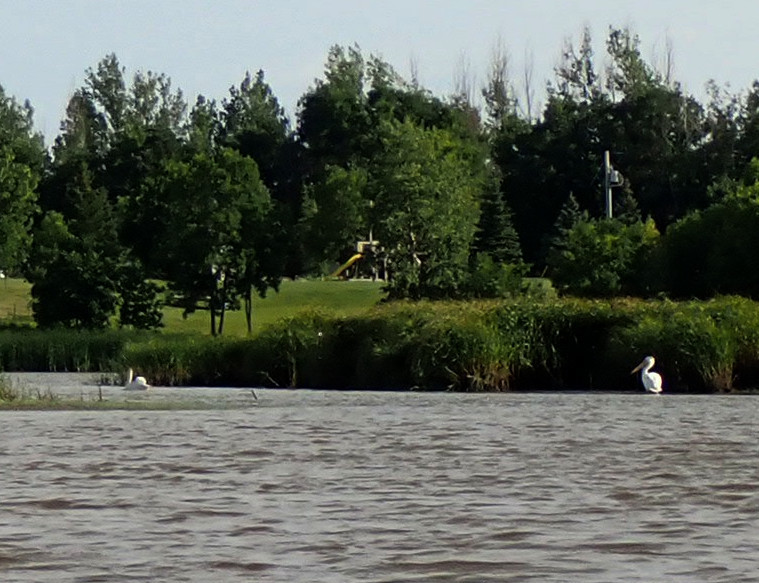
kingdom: Animalia
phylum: Chordata
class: Aves
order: Pelecaniformes
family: Pelecanidae
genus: Pelecanus
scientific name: Pelecanus erythrorhynchos
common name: American white pelican
